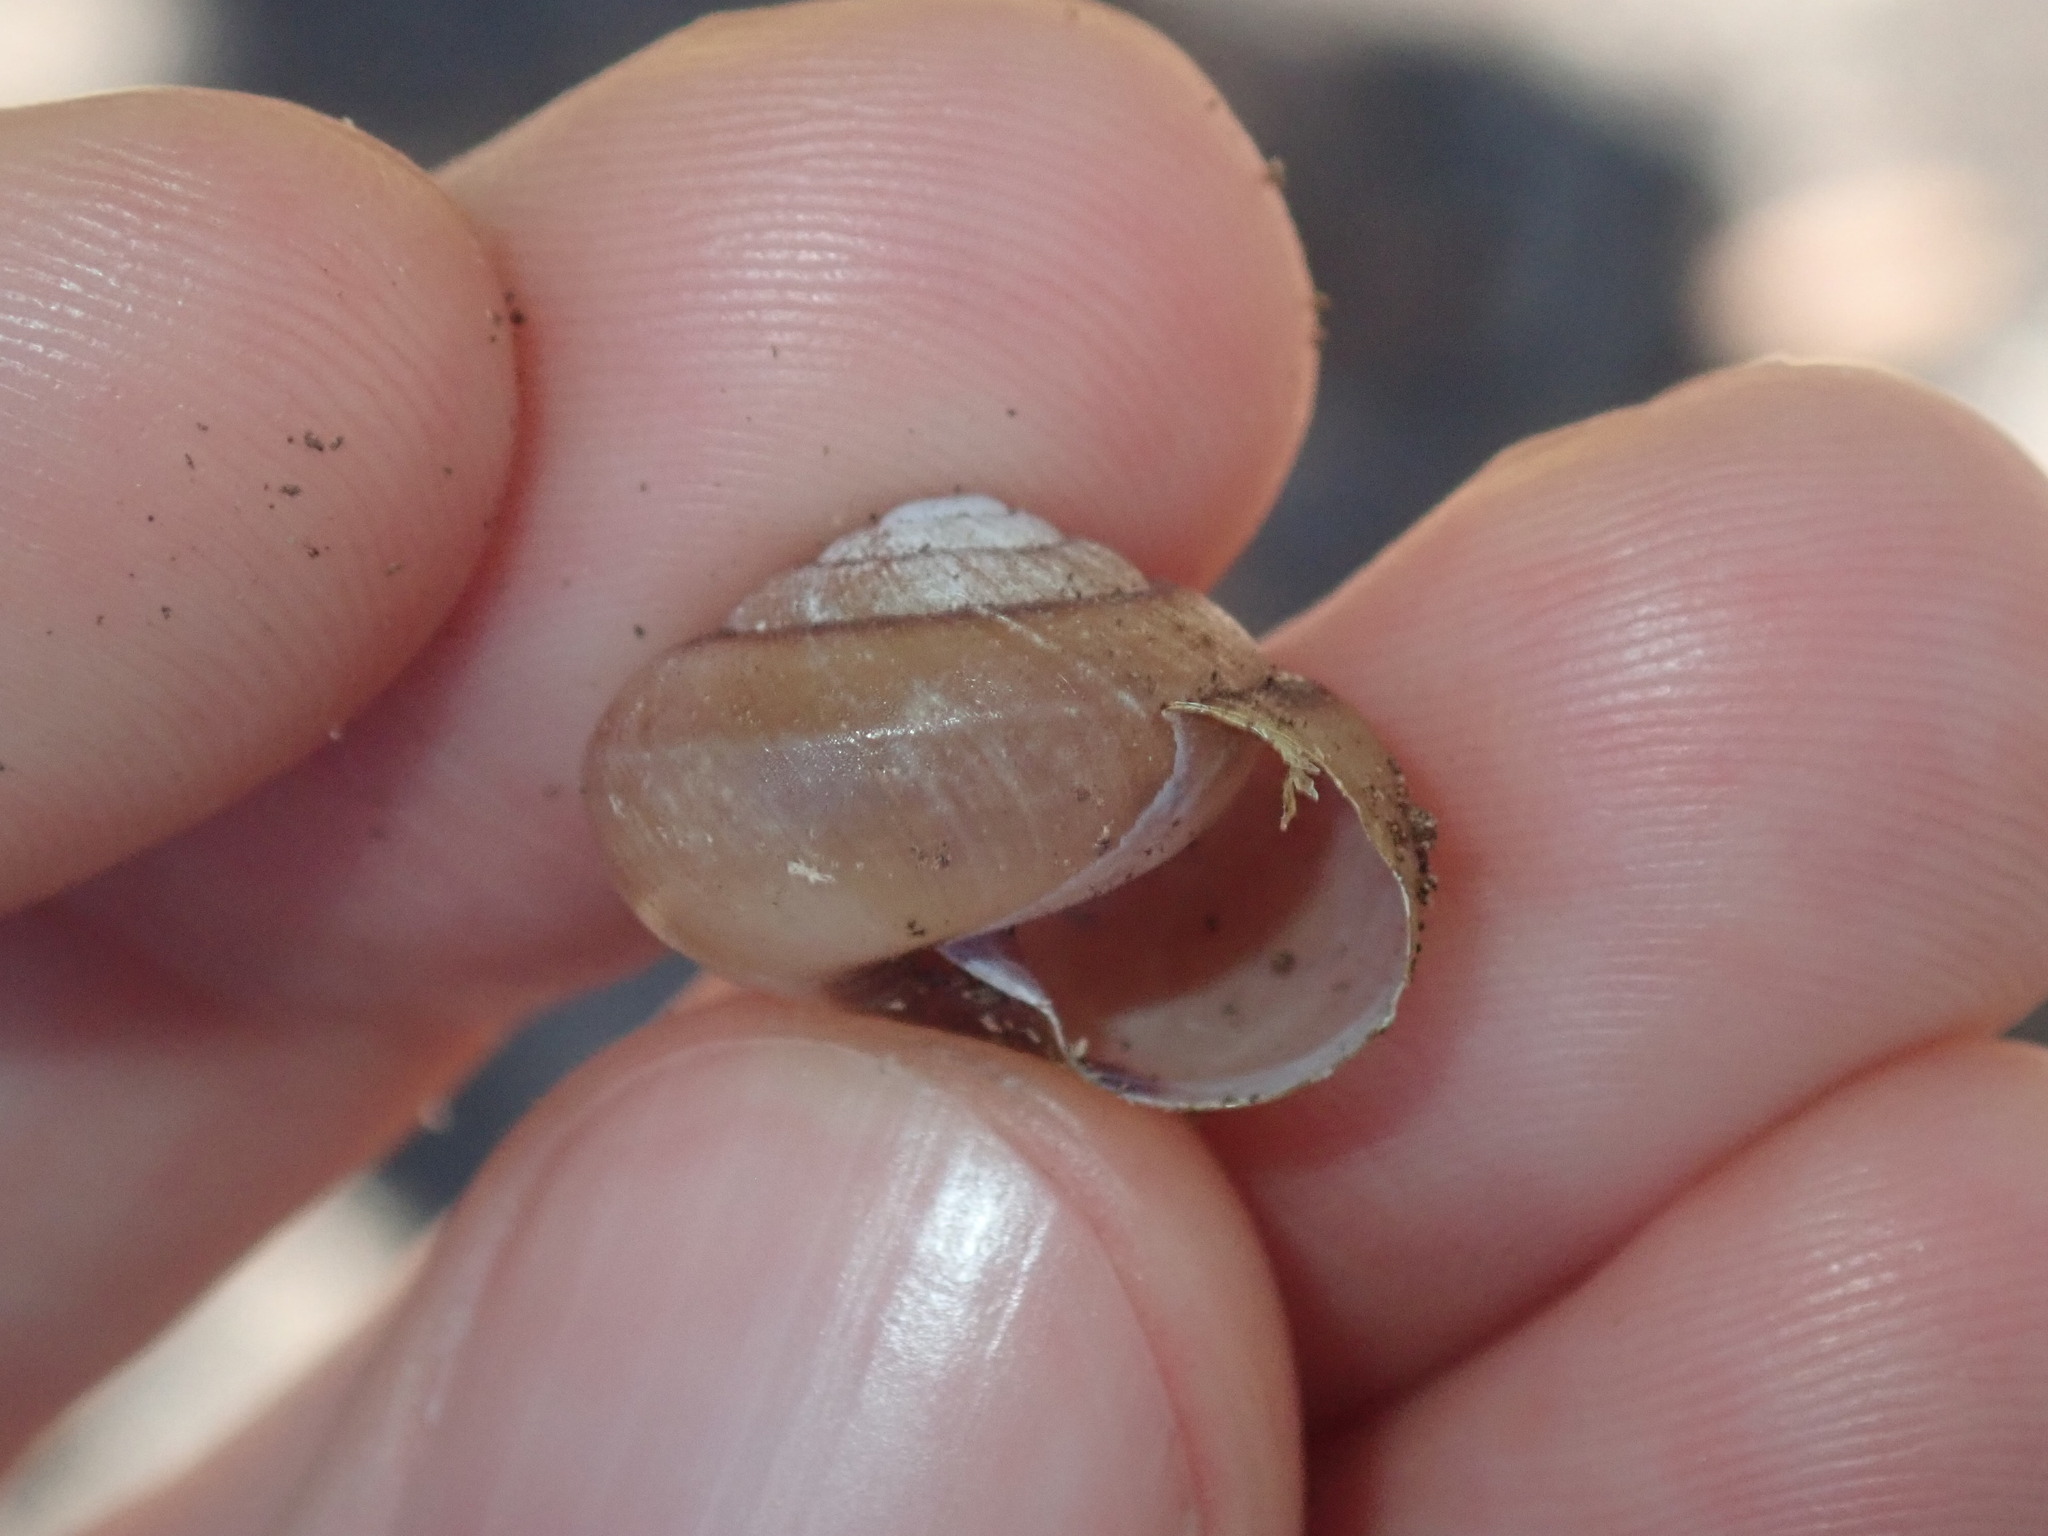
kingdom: Animalia
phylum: Mollusca
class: Gastropoda
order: Stylommatophora
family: Camaenidae
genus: Galadistes
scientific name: Galadistes akubra
